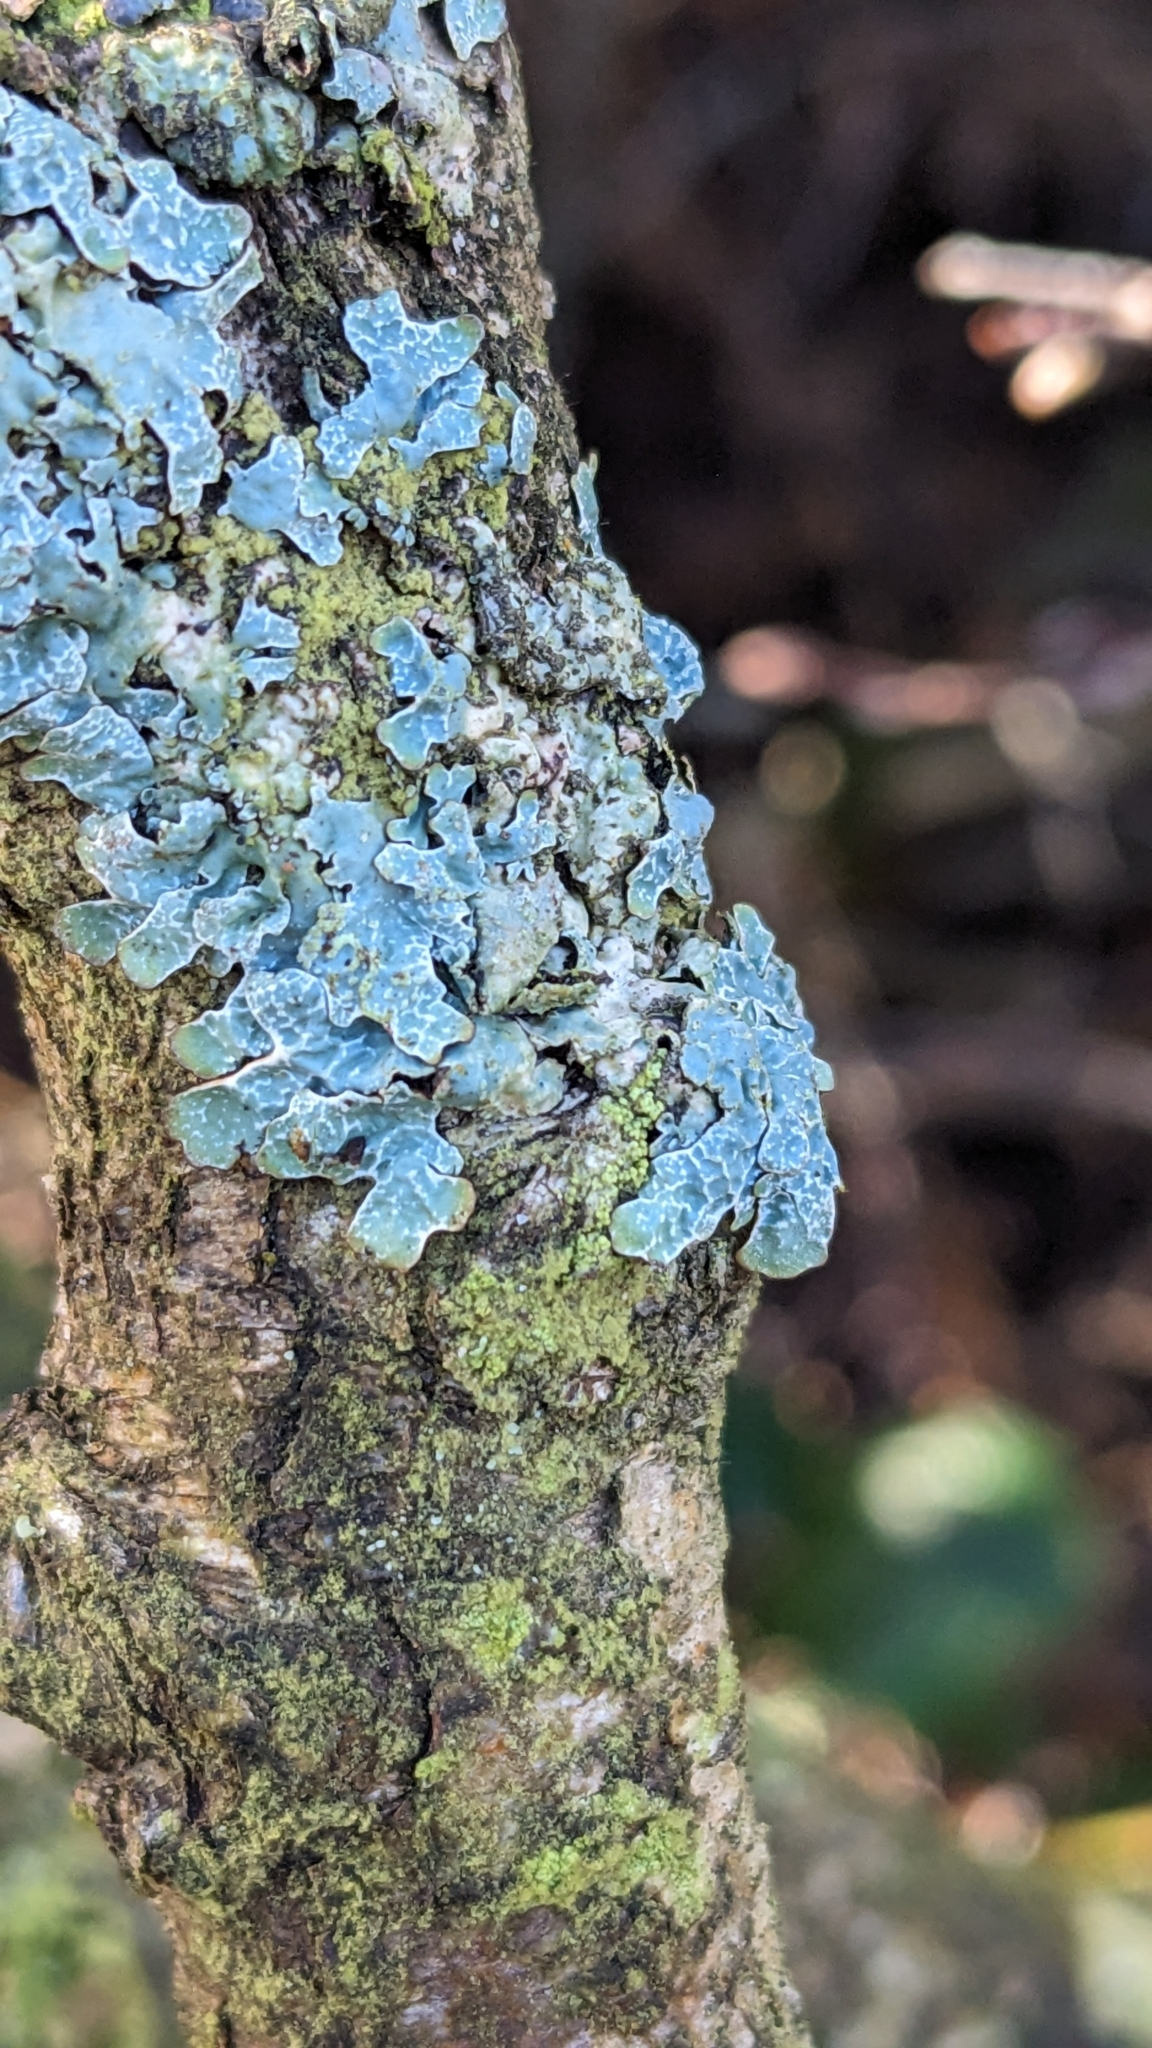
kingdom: Fungi
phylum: Ascomycota
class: Lecanoromycetes
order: Lecanorales
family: Parmeliaceae
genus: Parmelia
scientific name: Parmelia sulcata
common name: Netted shield lichen
